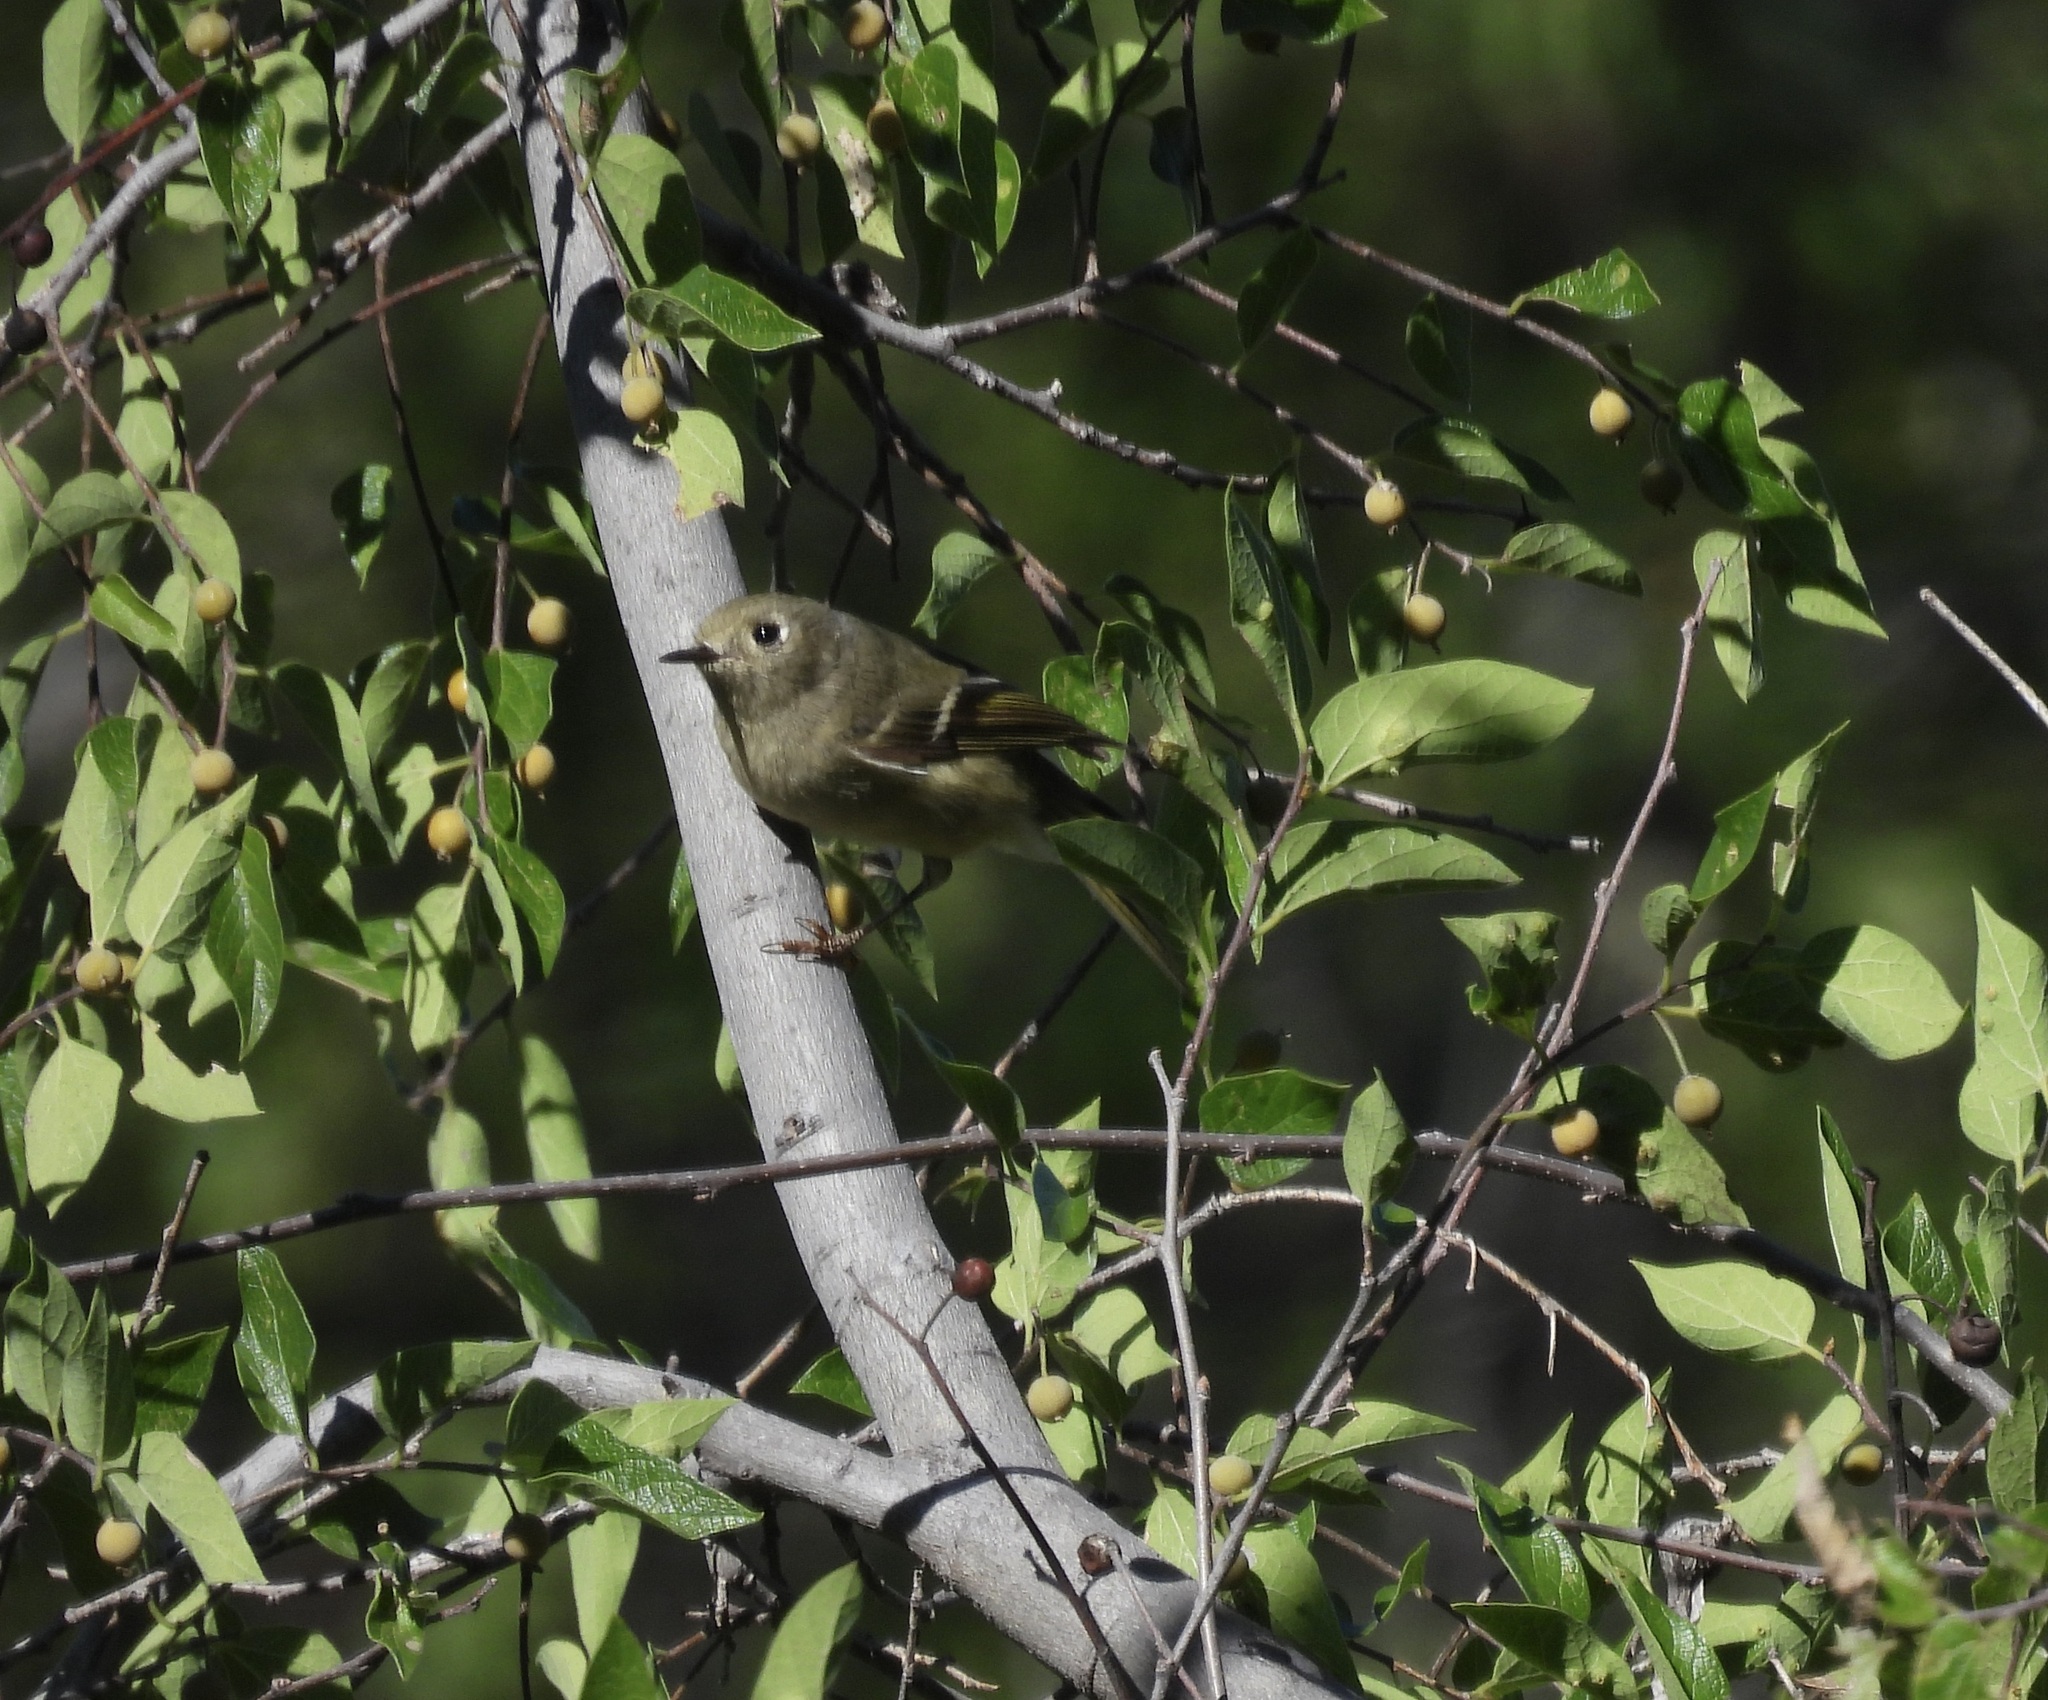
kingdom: Animalia
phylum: Chordata
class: Aves
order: Passeriformes
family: Regulidae
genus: Regulus
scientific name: Regulus calendula
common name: Ruby-crowned kinglet
